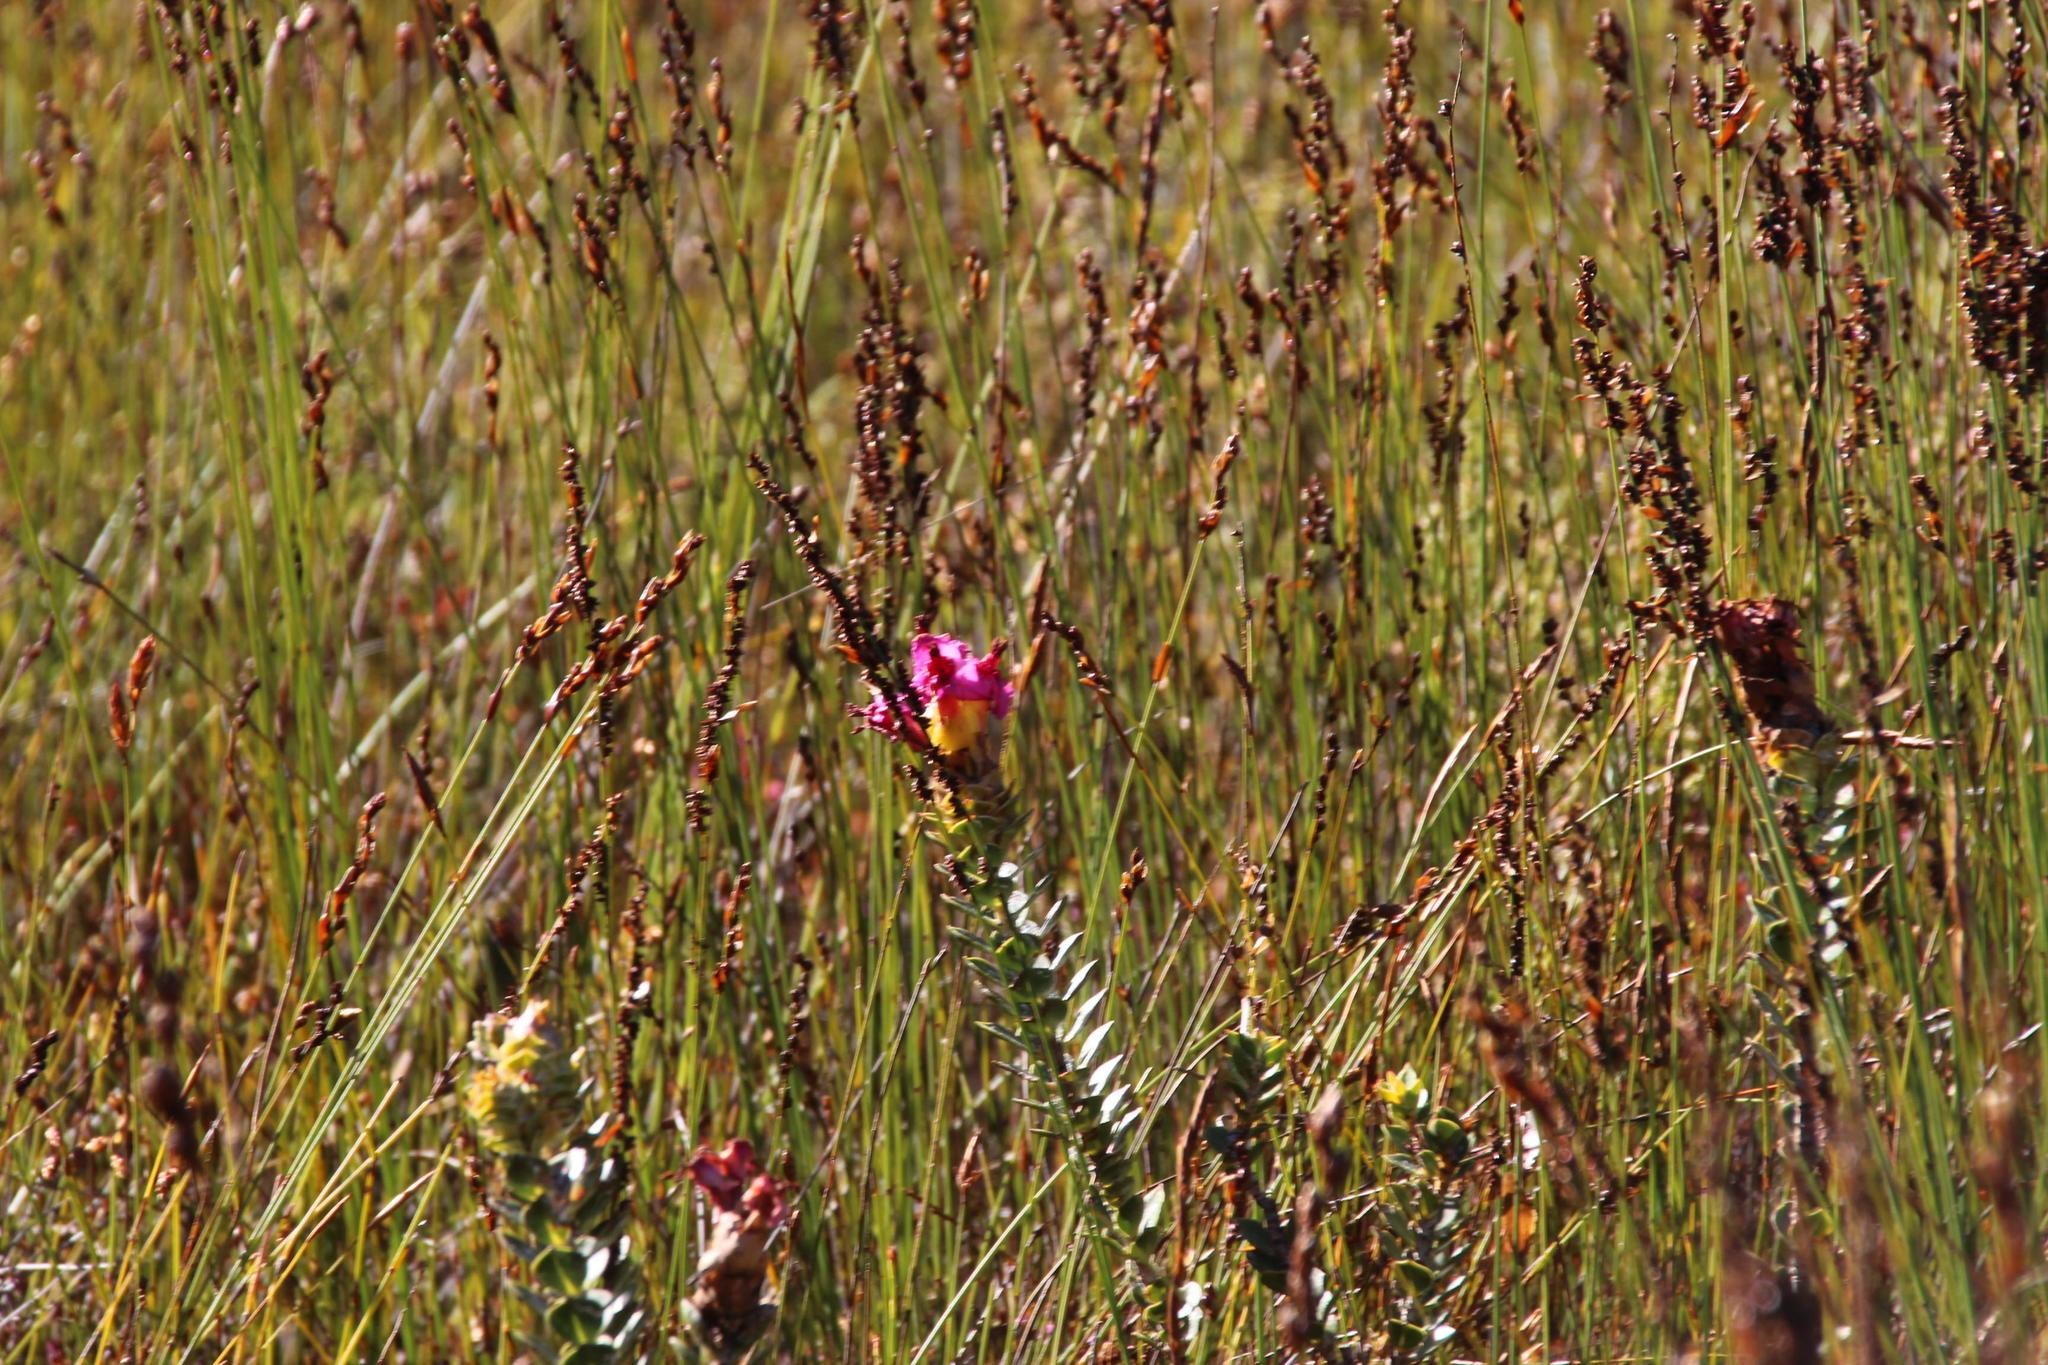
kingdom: Plantae
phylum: Tracheophyta
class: Liliopsida
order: Poales
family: Restionaceae
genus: Elegia
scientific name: Elegia hookeriana
